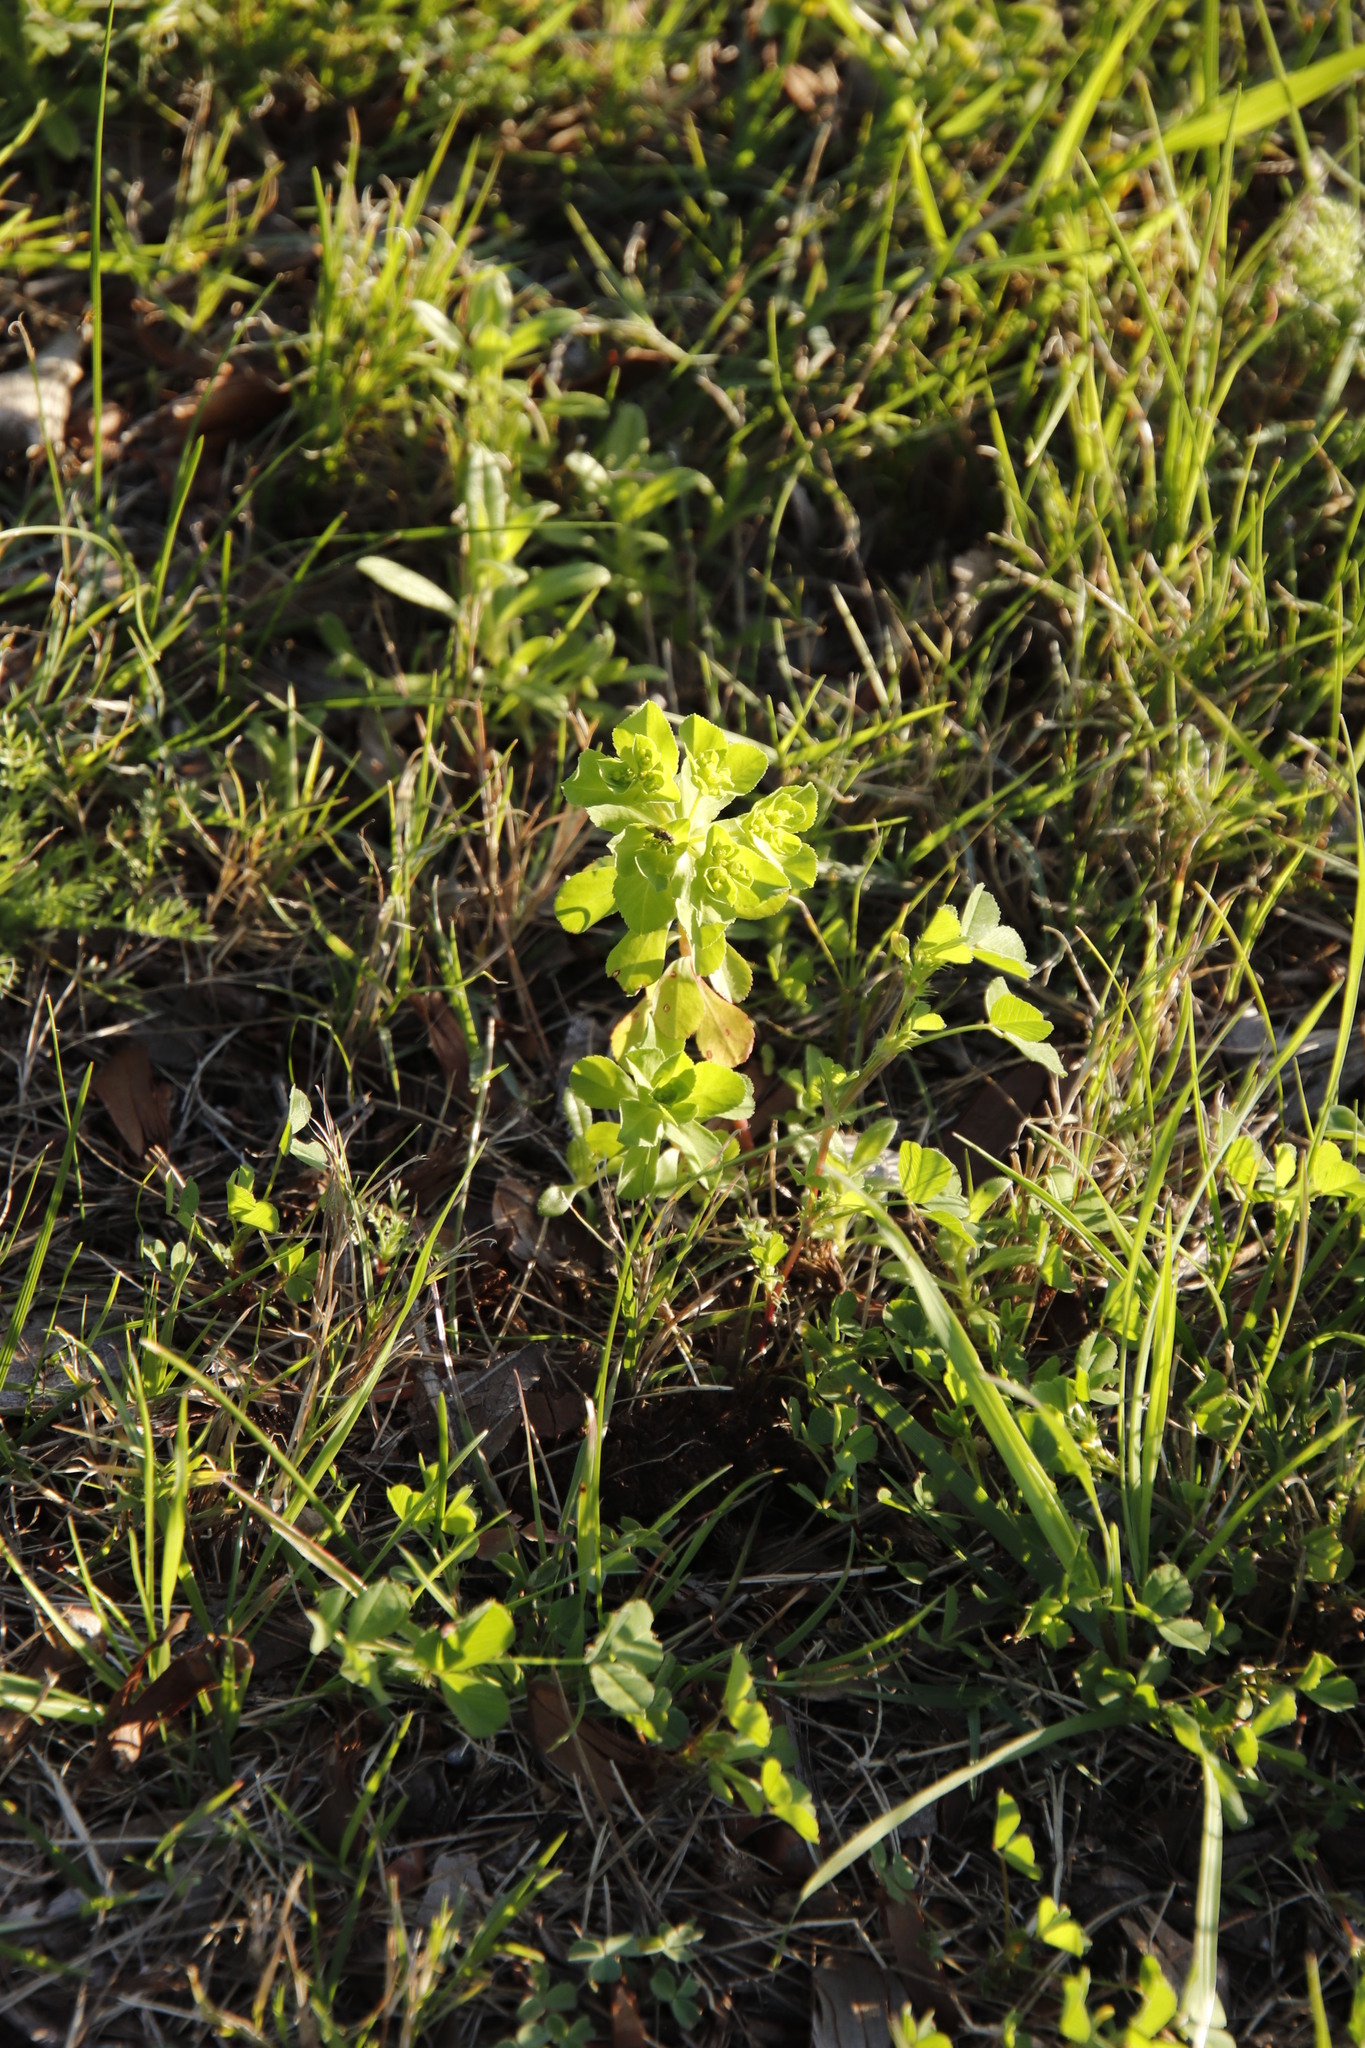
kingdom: Plantae
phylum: Tracheophyta
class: Magnoliopsida
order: Malpighiales
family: Euphorbiaceae
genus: Euphorbia
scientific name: Euphorbia helioscopia
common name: Sun spurge
